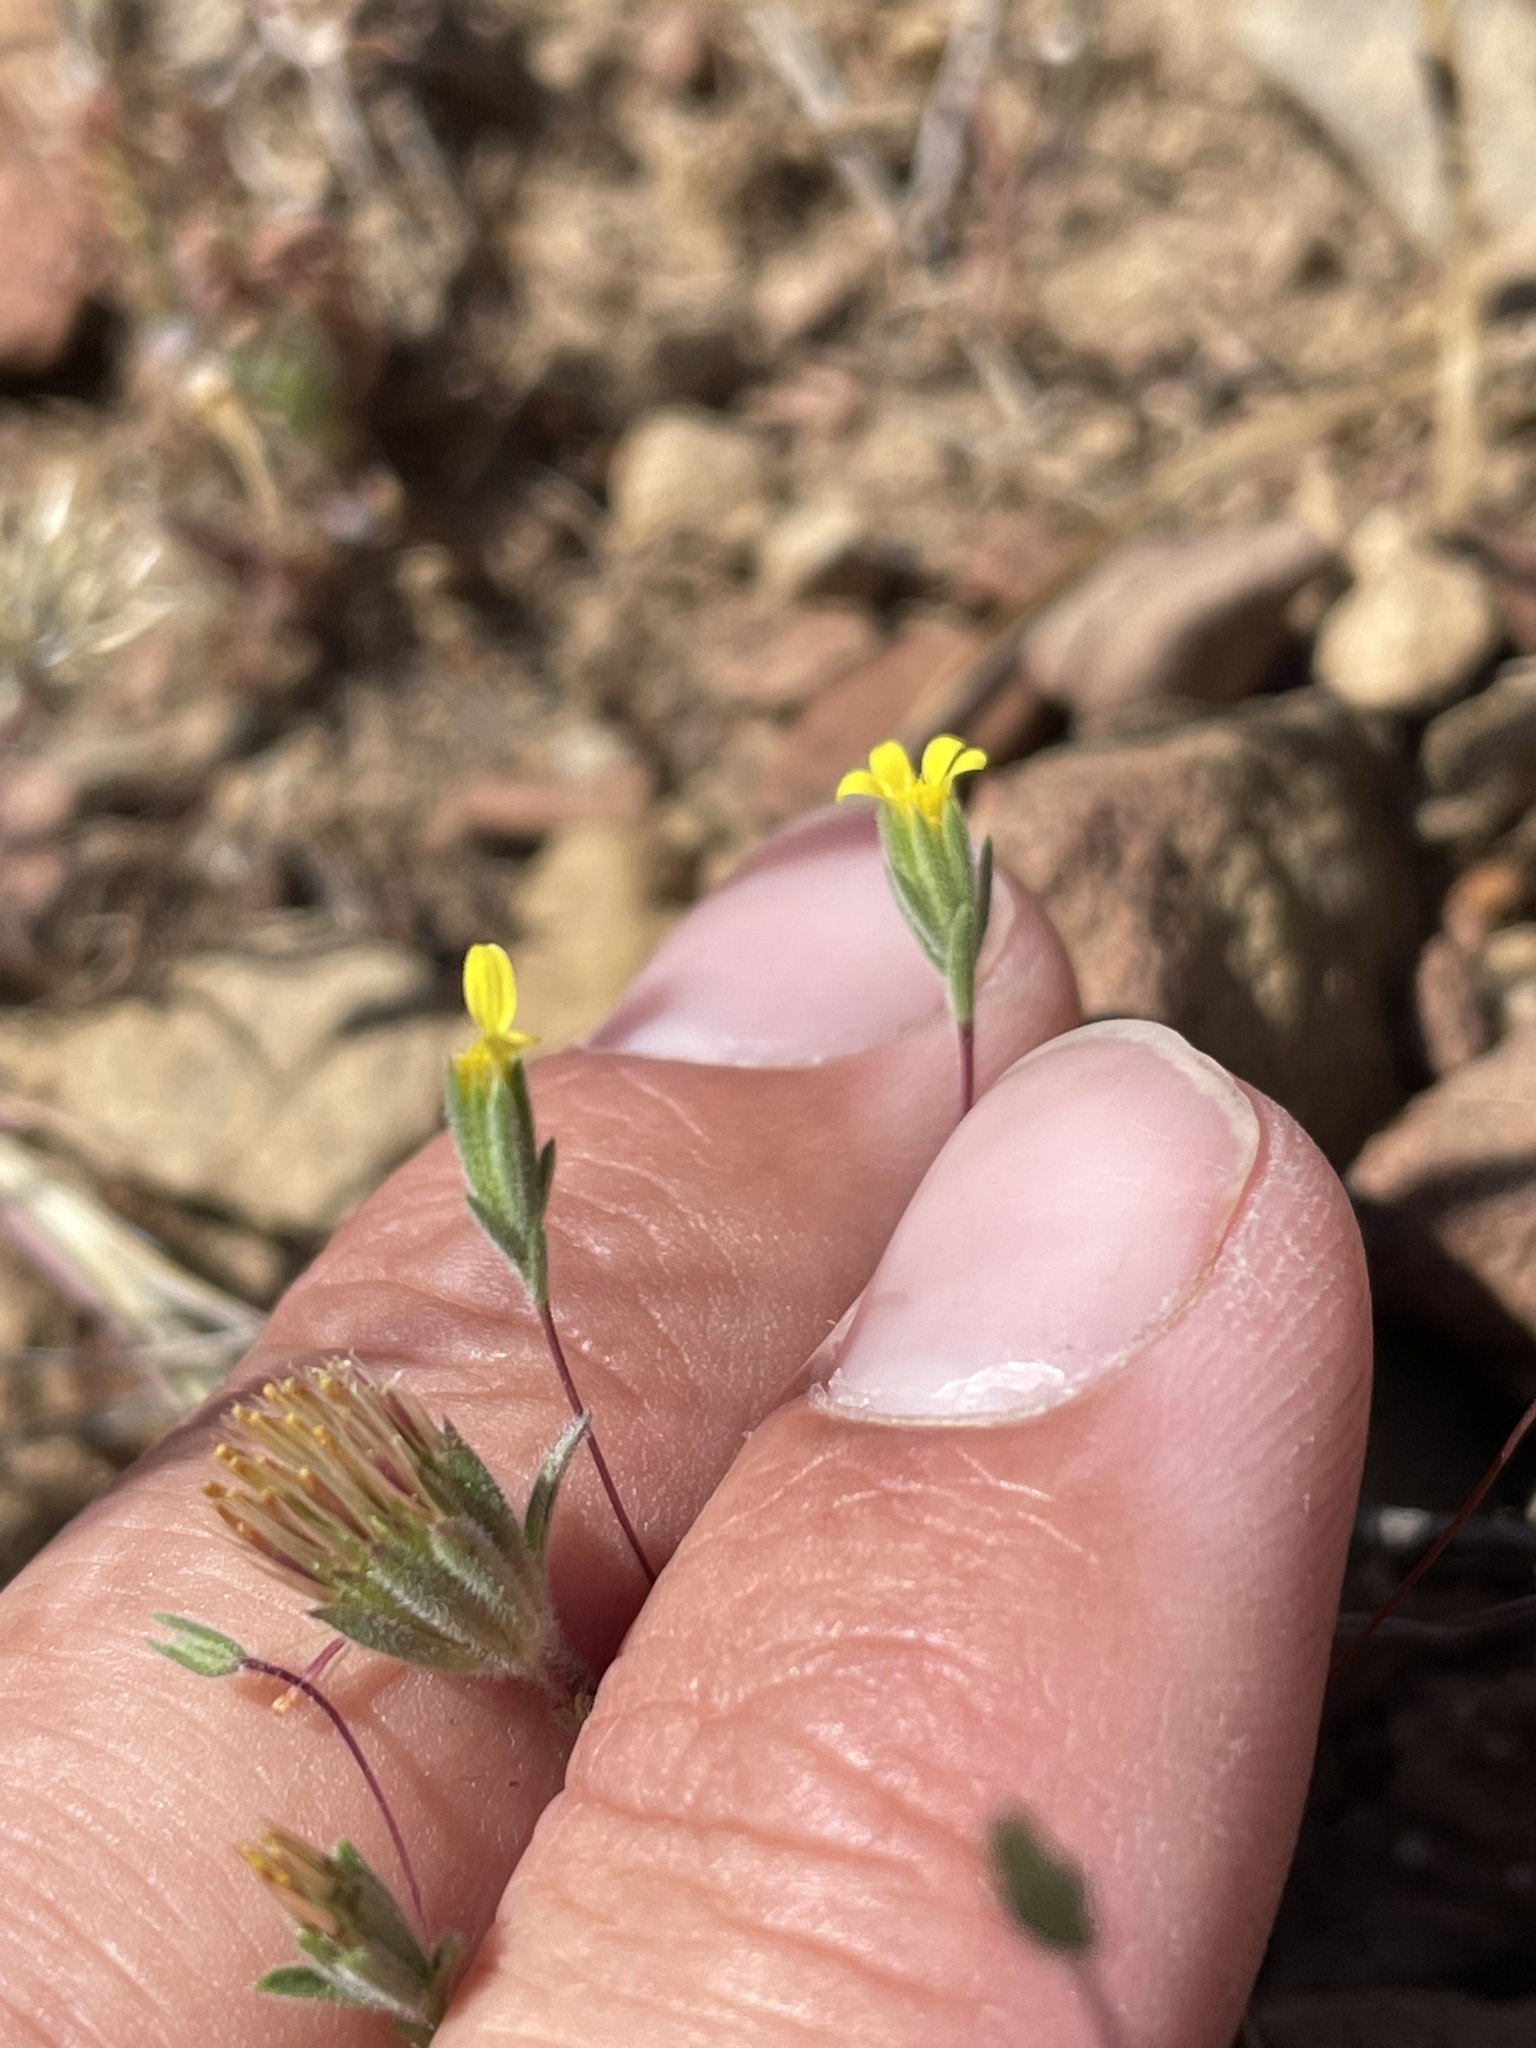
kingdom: Plantae
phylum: Tracheophyta
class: Magnoliopsida
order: Asterales
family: Asteraceae
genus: Rigiopappus
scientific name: Rigiopappus leptocladus
